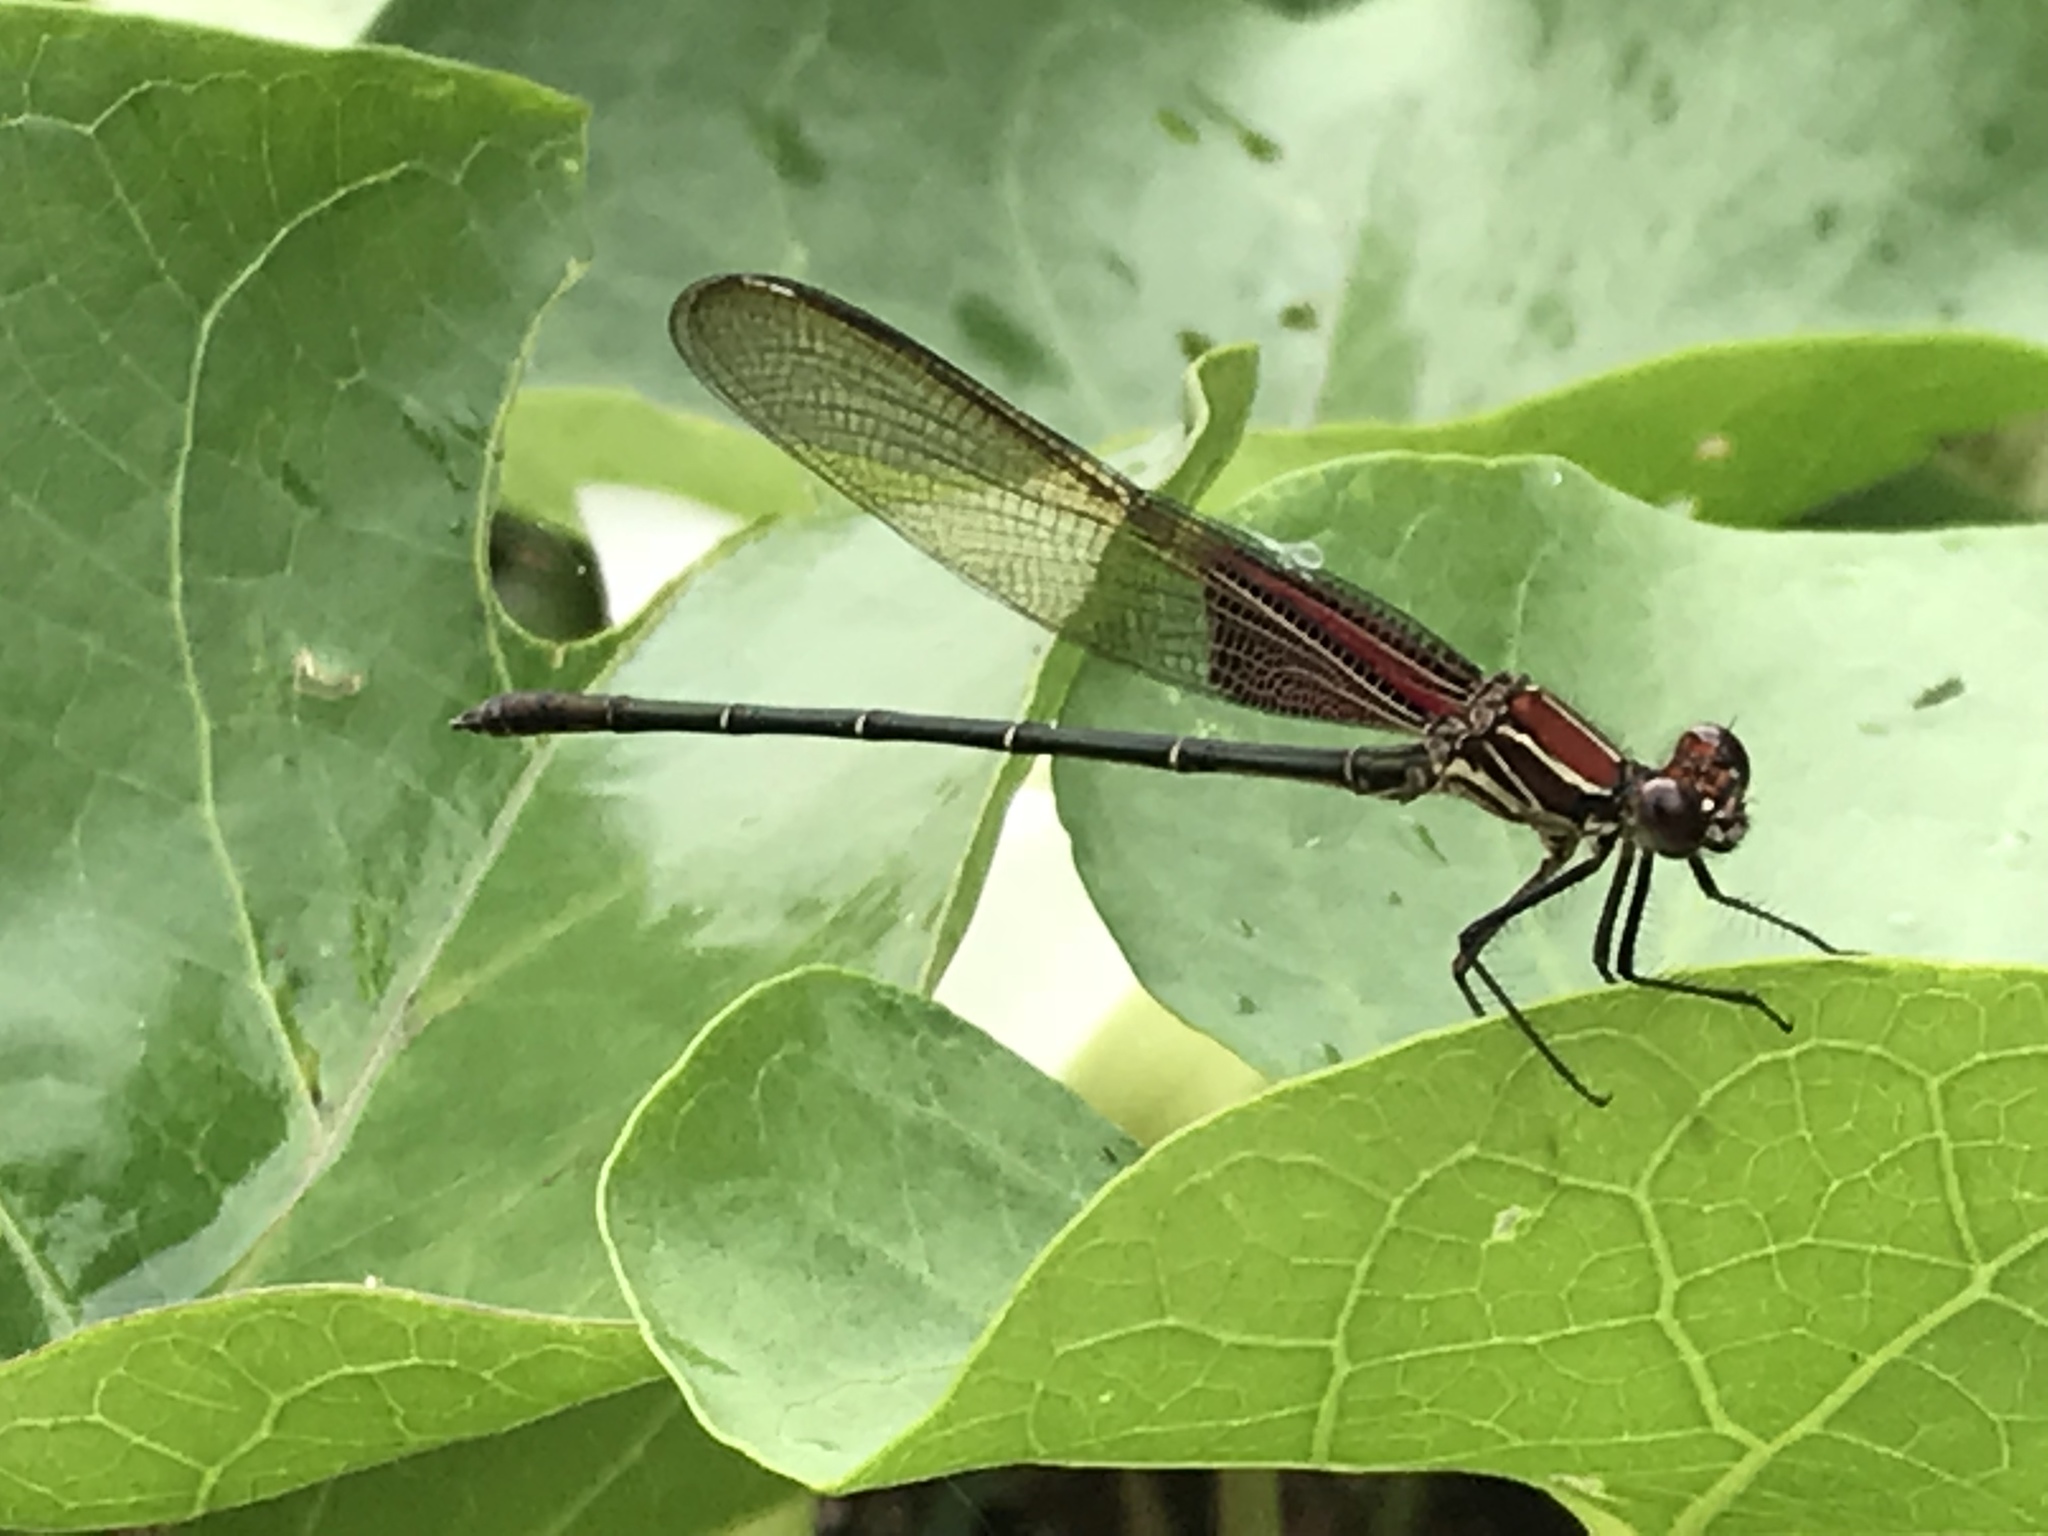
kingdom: Animalia
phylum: Arthropoda
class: Insecta
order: Odonata
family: Calopterygidae
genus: Hetaerina
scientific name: Hetaerina americana
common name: American rubyspot
